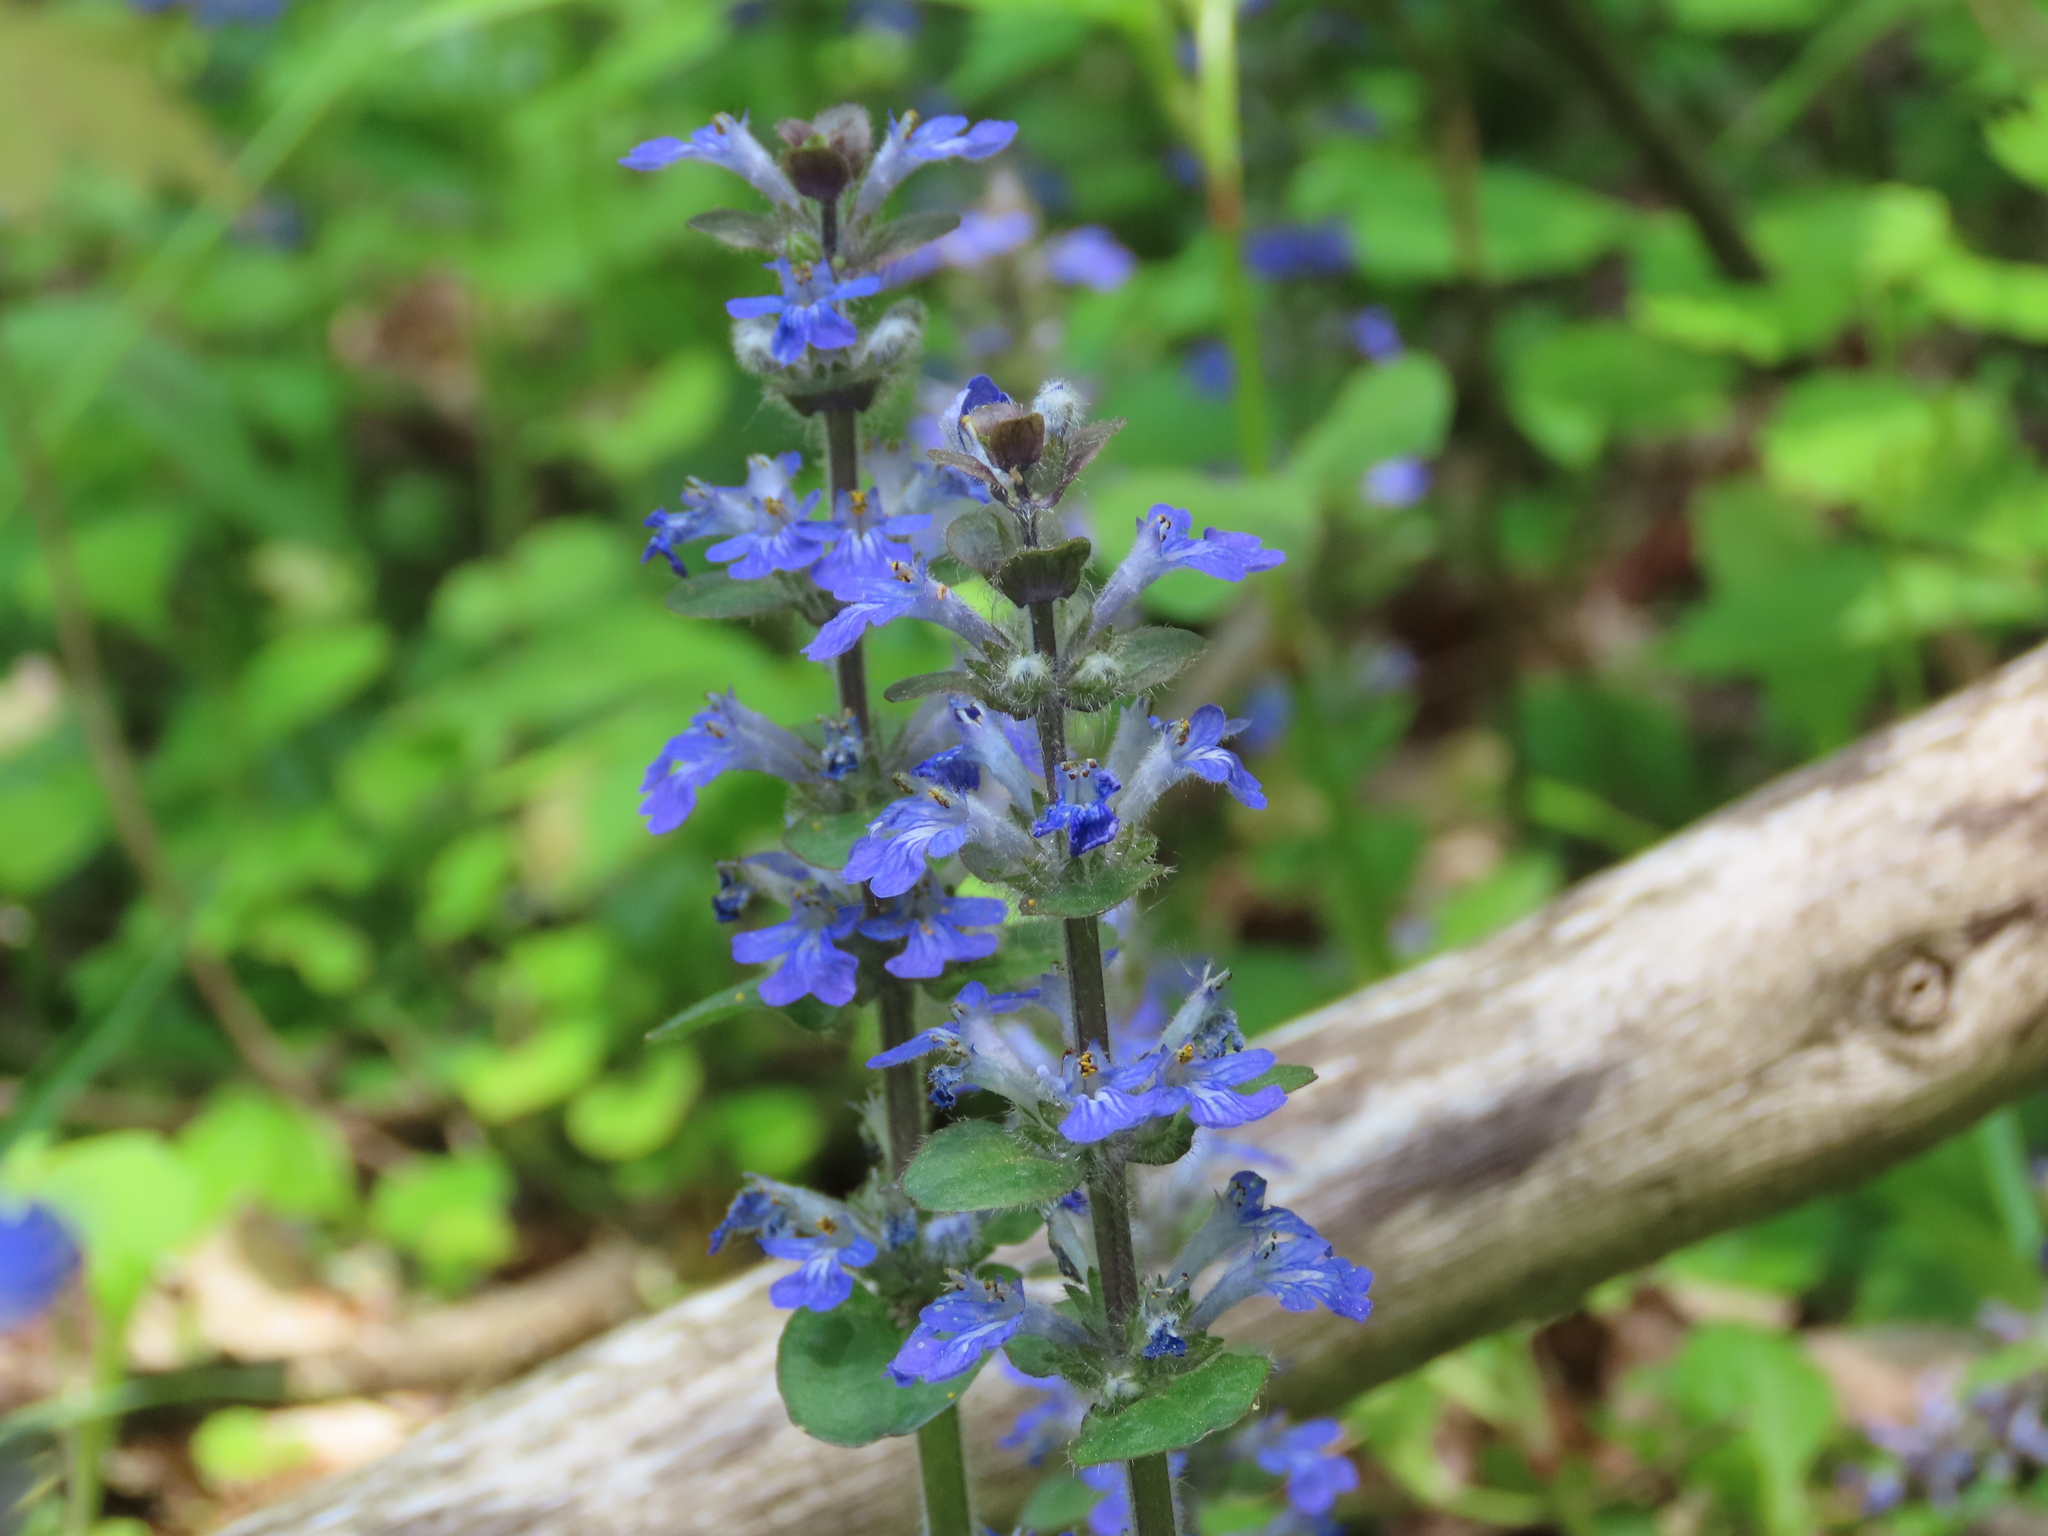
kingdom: Plantae
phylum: Tracheophyta
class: Magnoliopsida
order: Lamiales
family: Lamiaceae
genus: Ajuga
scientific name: Ajuga reptans
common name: Bugle
